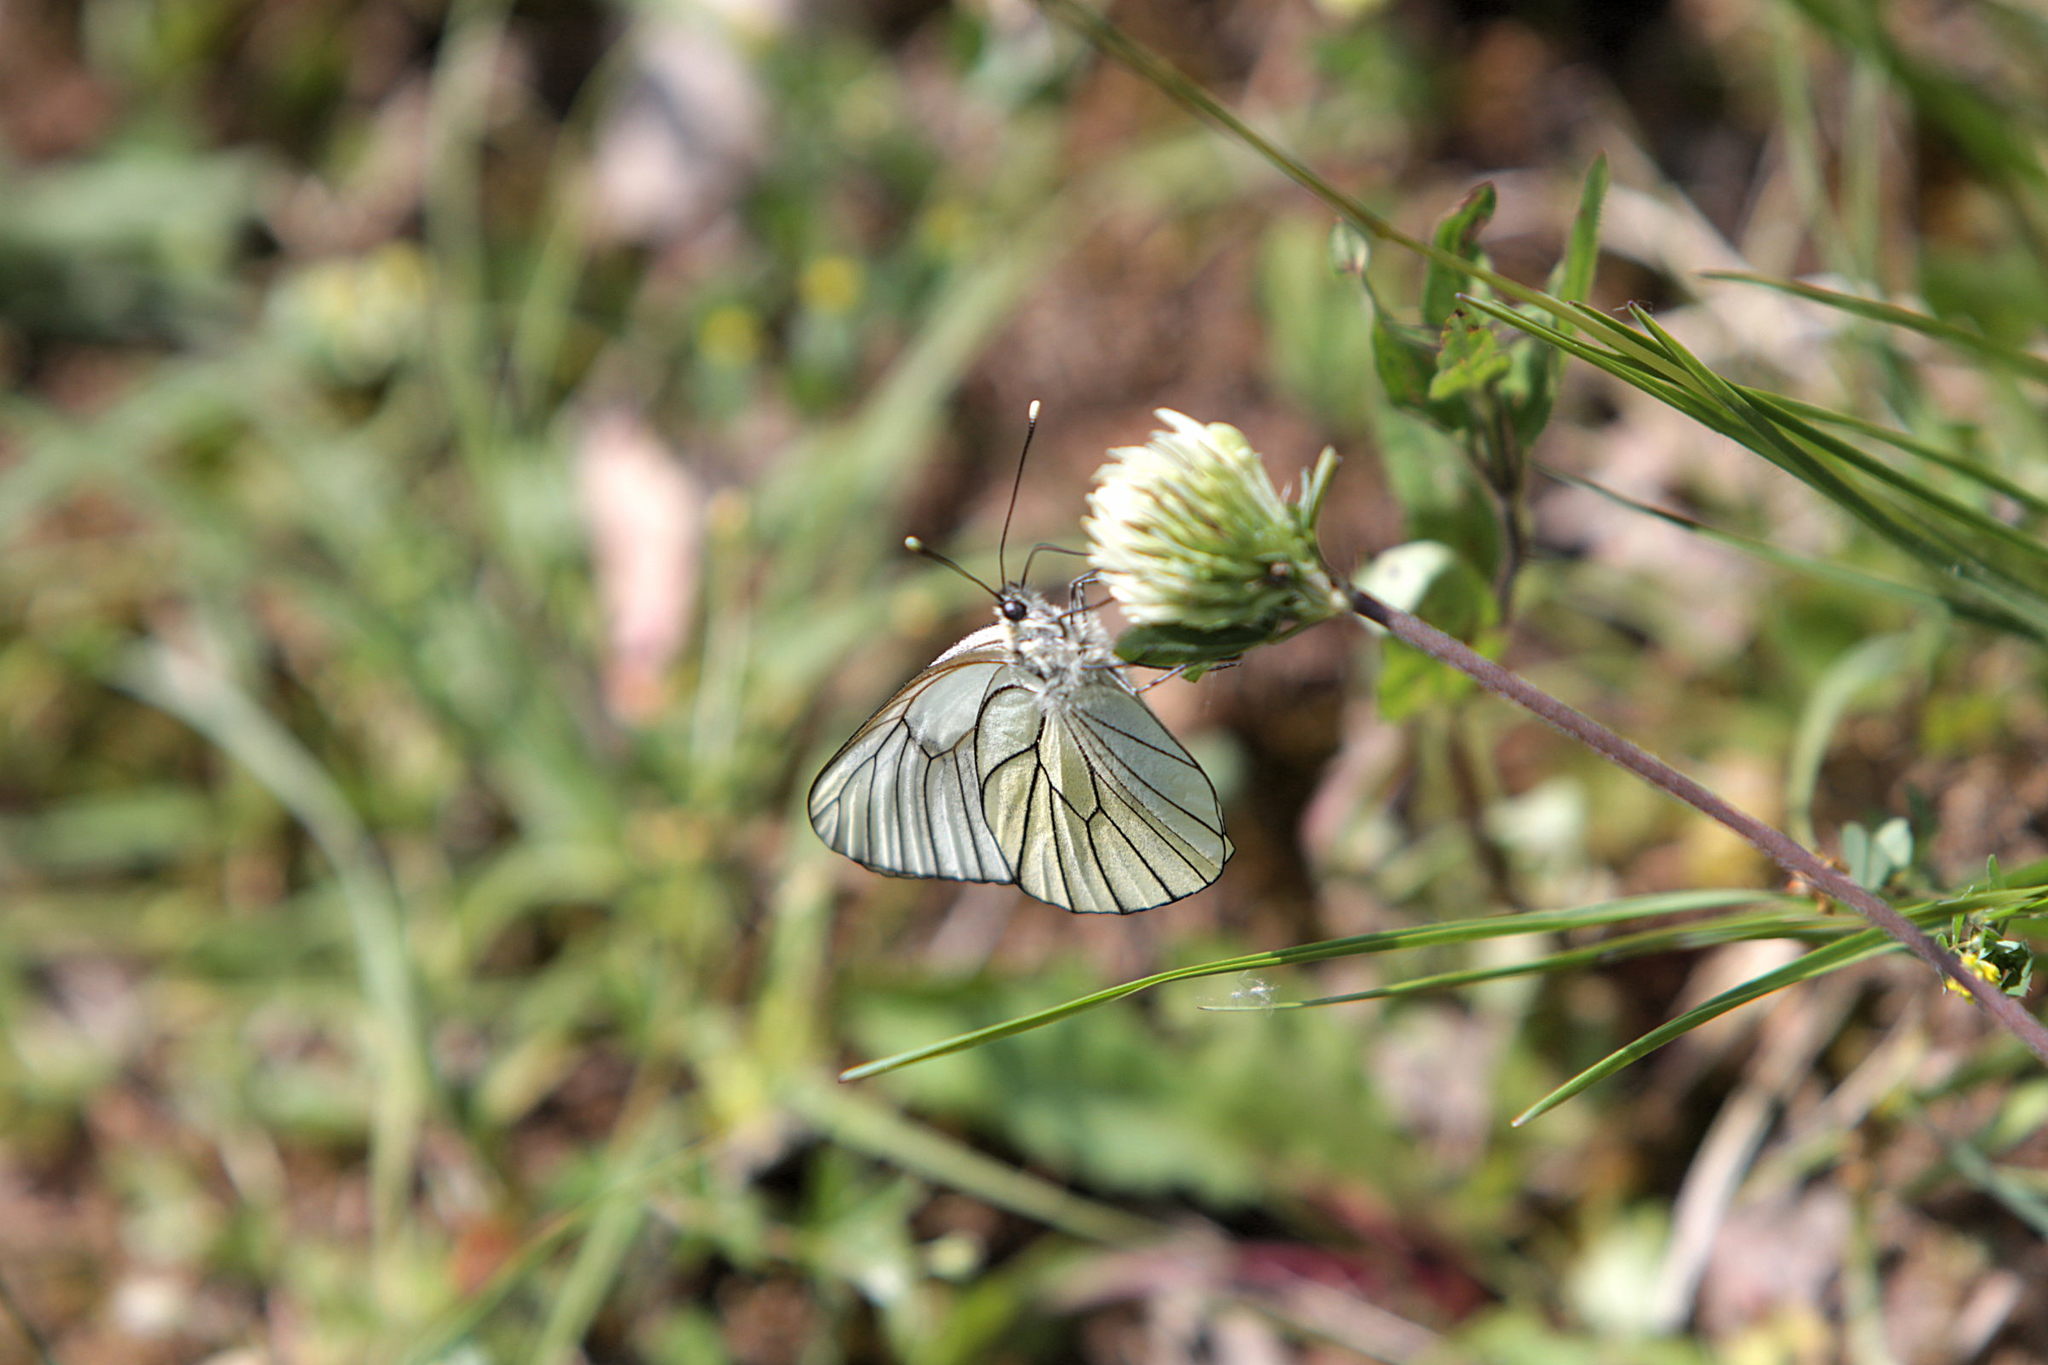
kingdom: Animalia
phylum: Arthropoda
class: Insecta
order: Lepidoptera
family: Pieridae
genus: Aporia
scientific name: Aporia crataegi
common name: Black-veined white
